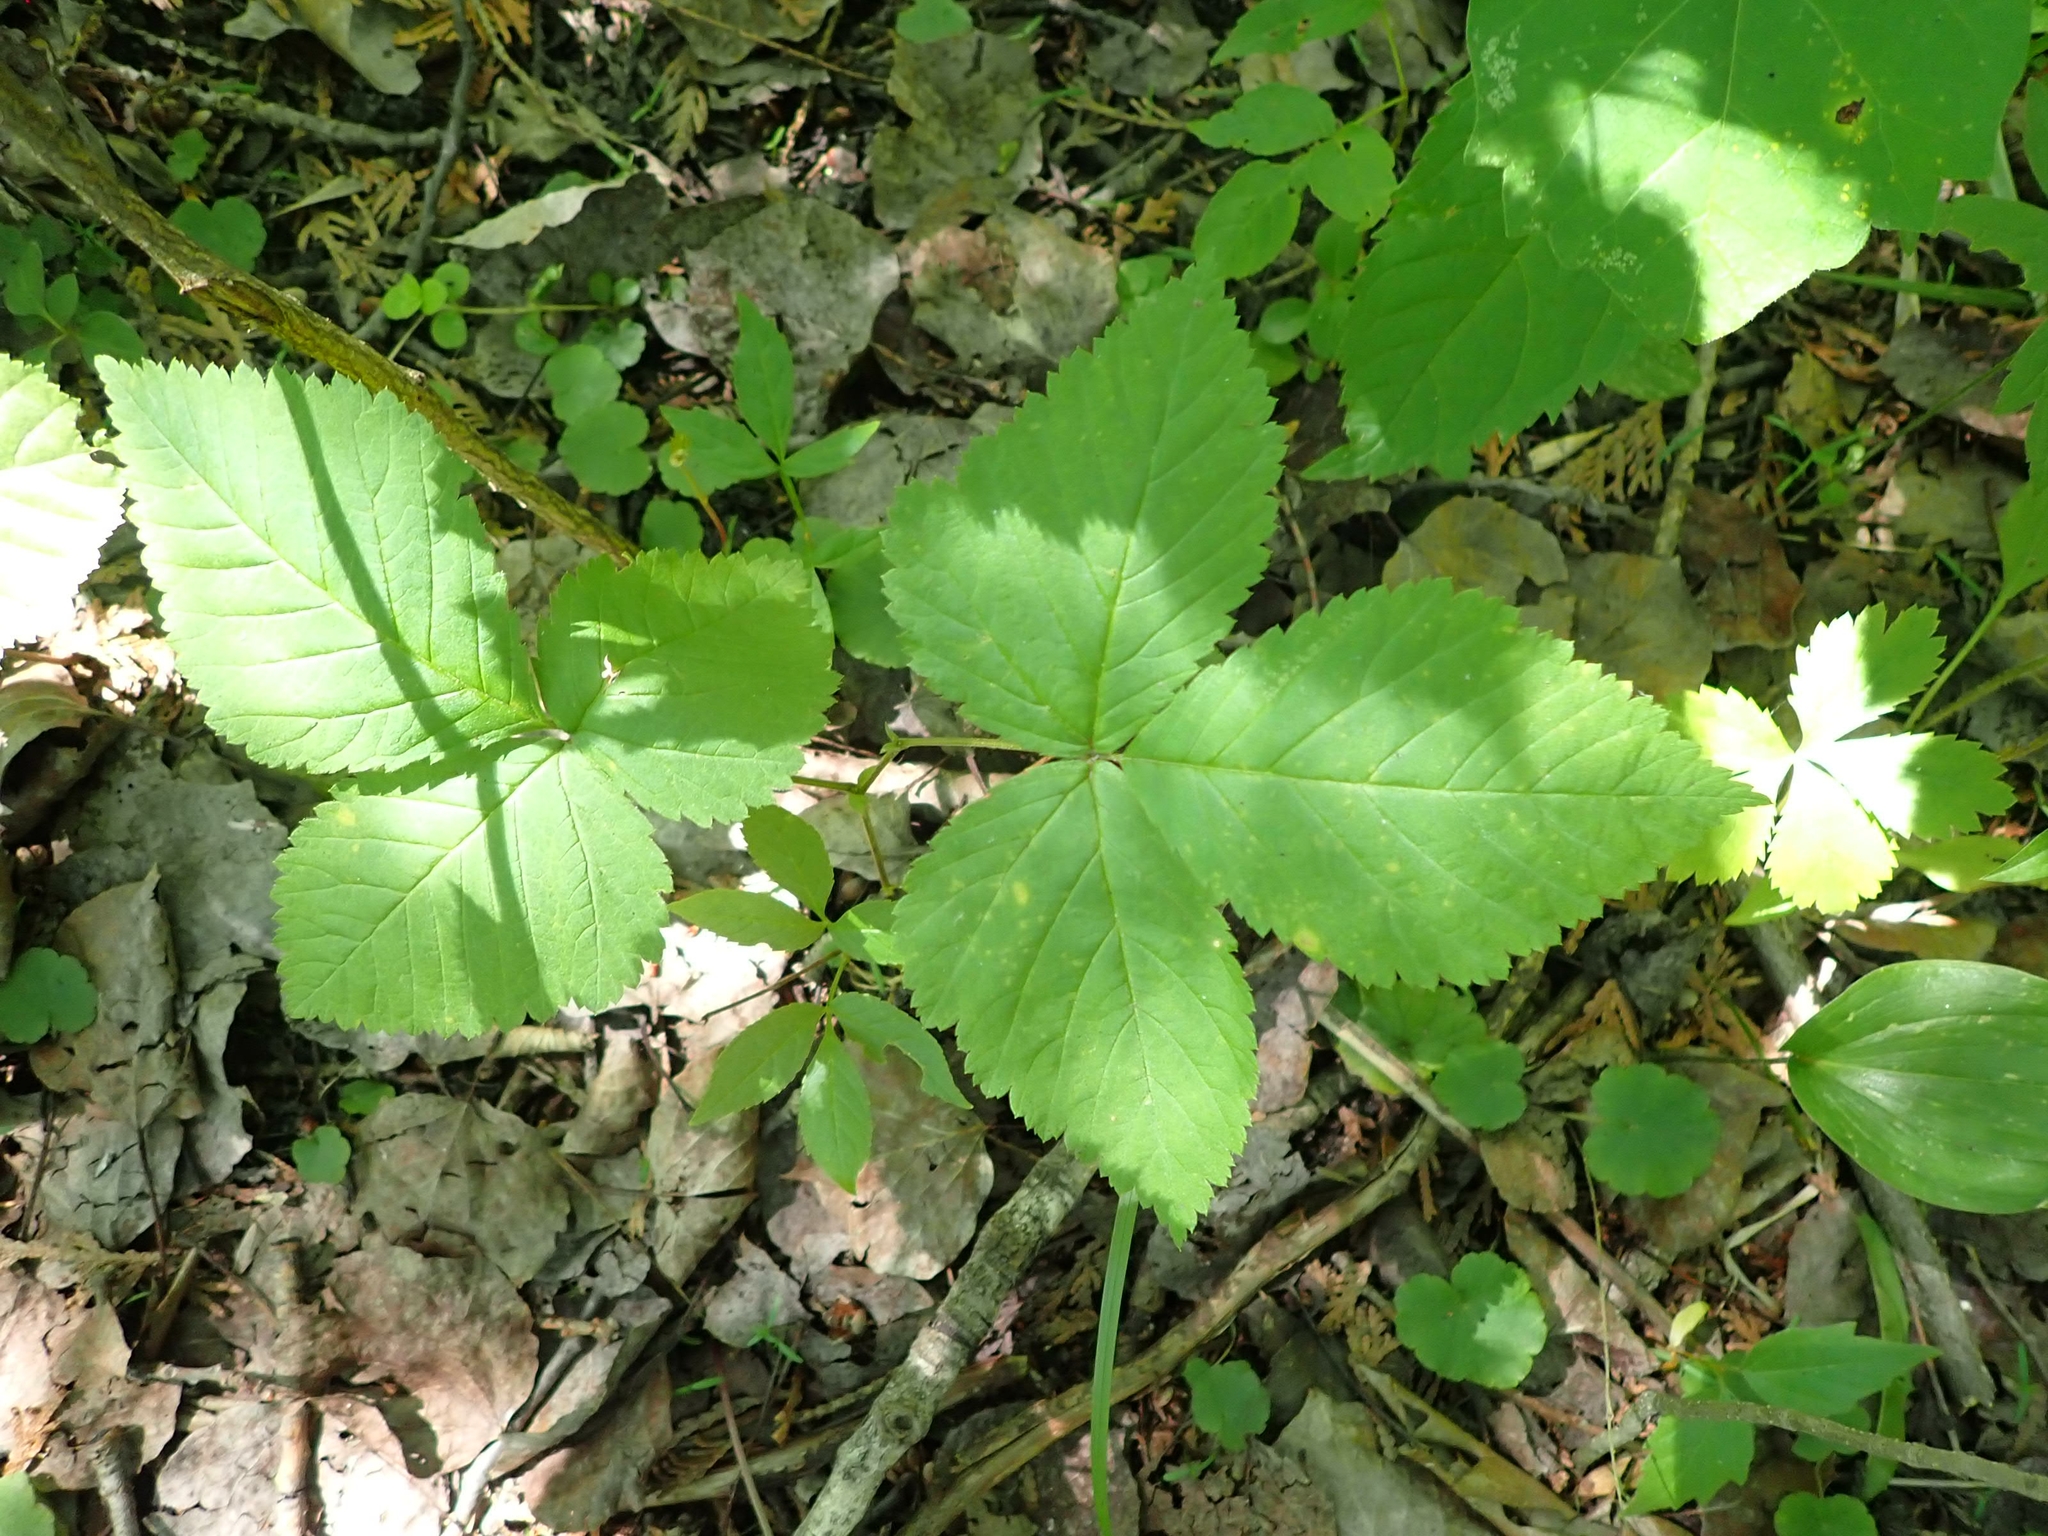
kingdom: Plantae
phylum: Tracheophyta
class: Magnoliopsida
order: Rosales
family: Rosaceae
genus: Rubus
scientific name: Rubus pubescens
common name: Dwarf raspberry
